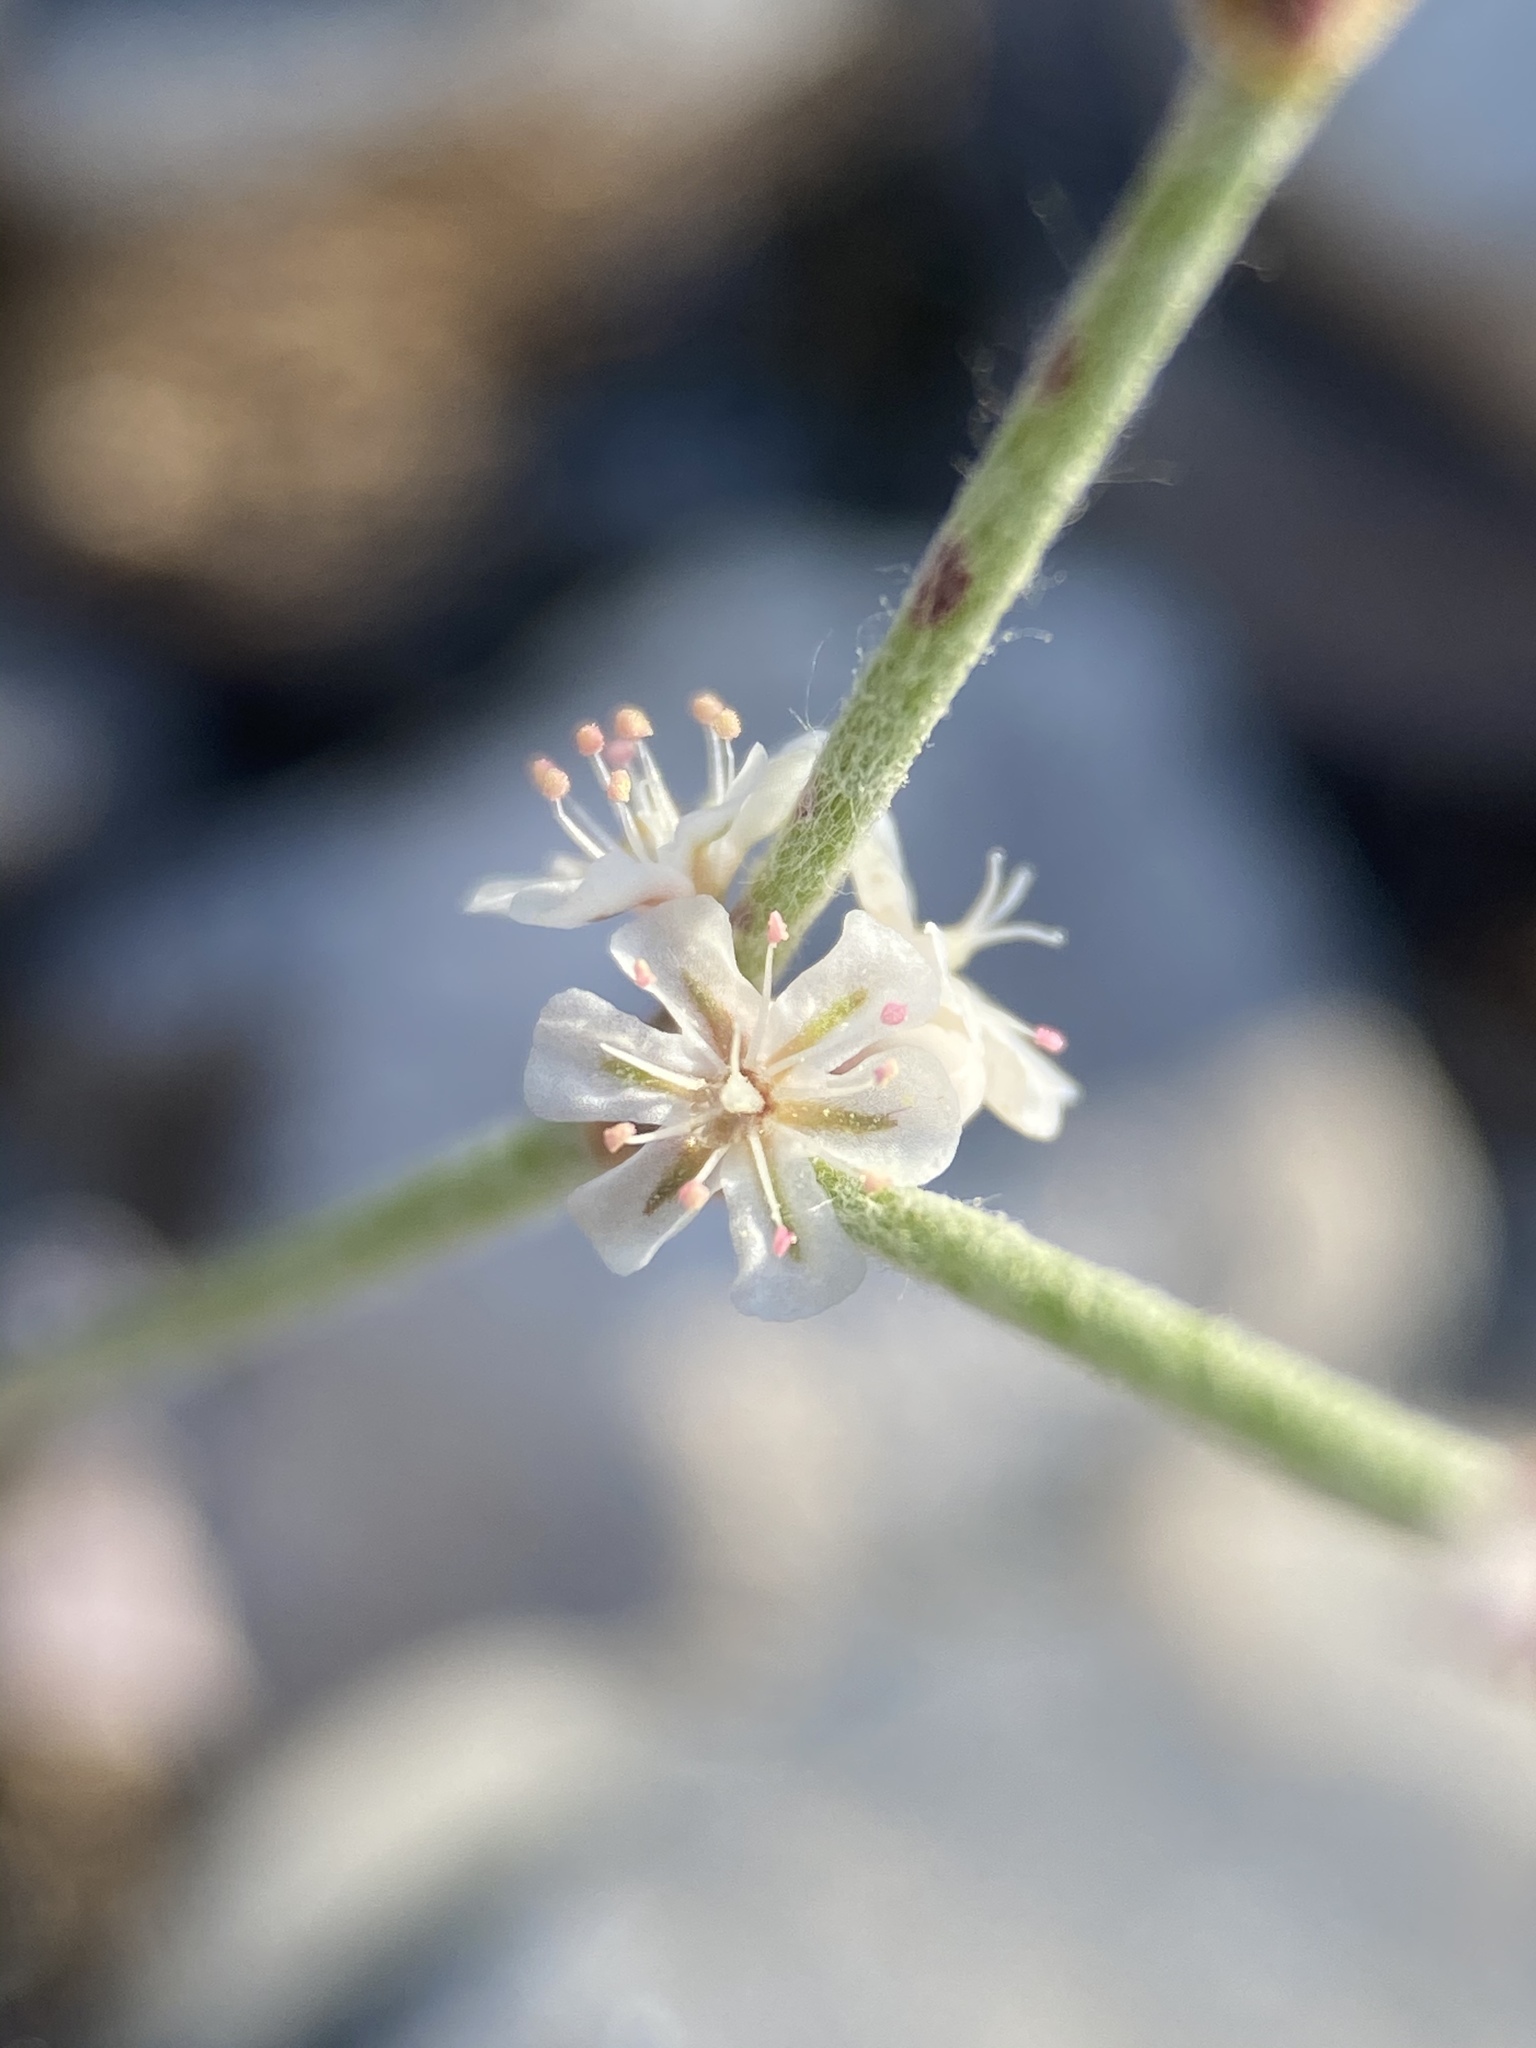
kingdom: Plantae
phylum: Tracheophyta
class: Magnoliopsida
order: Caryophyllales
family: Polygonaceae
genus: Eriogonum
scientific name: Eriogonum palmerianum
